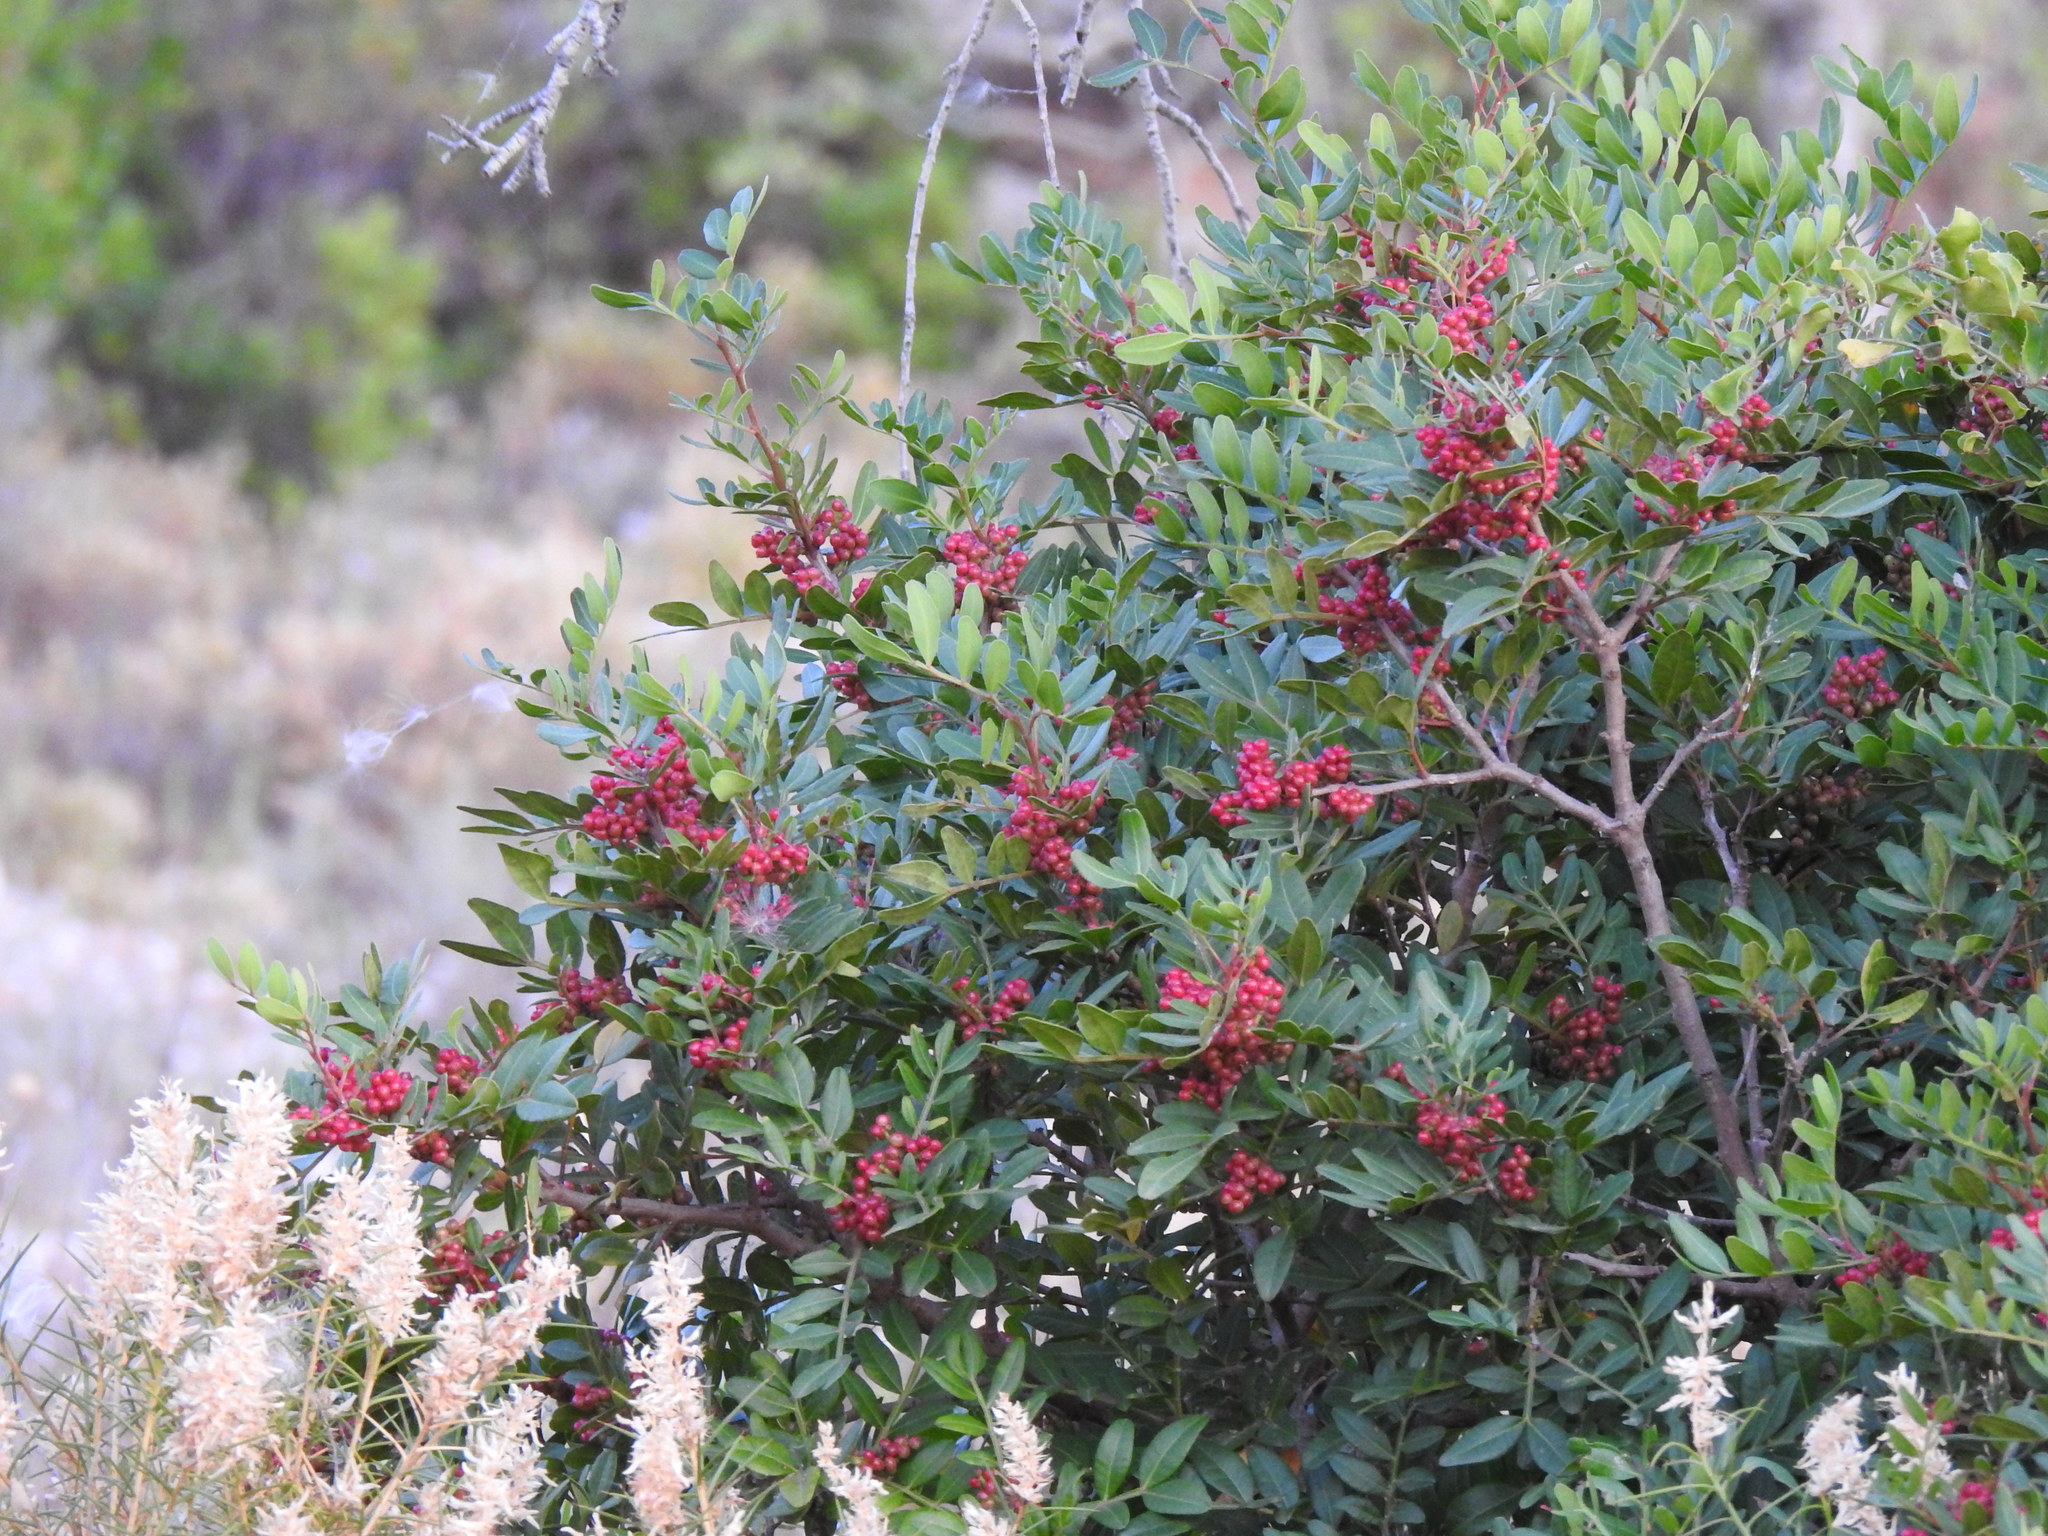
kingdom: Plantae
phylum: Tracheophyta
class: Magnoliopsida
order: Sapindales
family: Anacardiaceae
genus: Pistacia
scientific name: Pistacia lentiscus
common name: Lentisk
